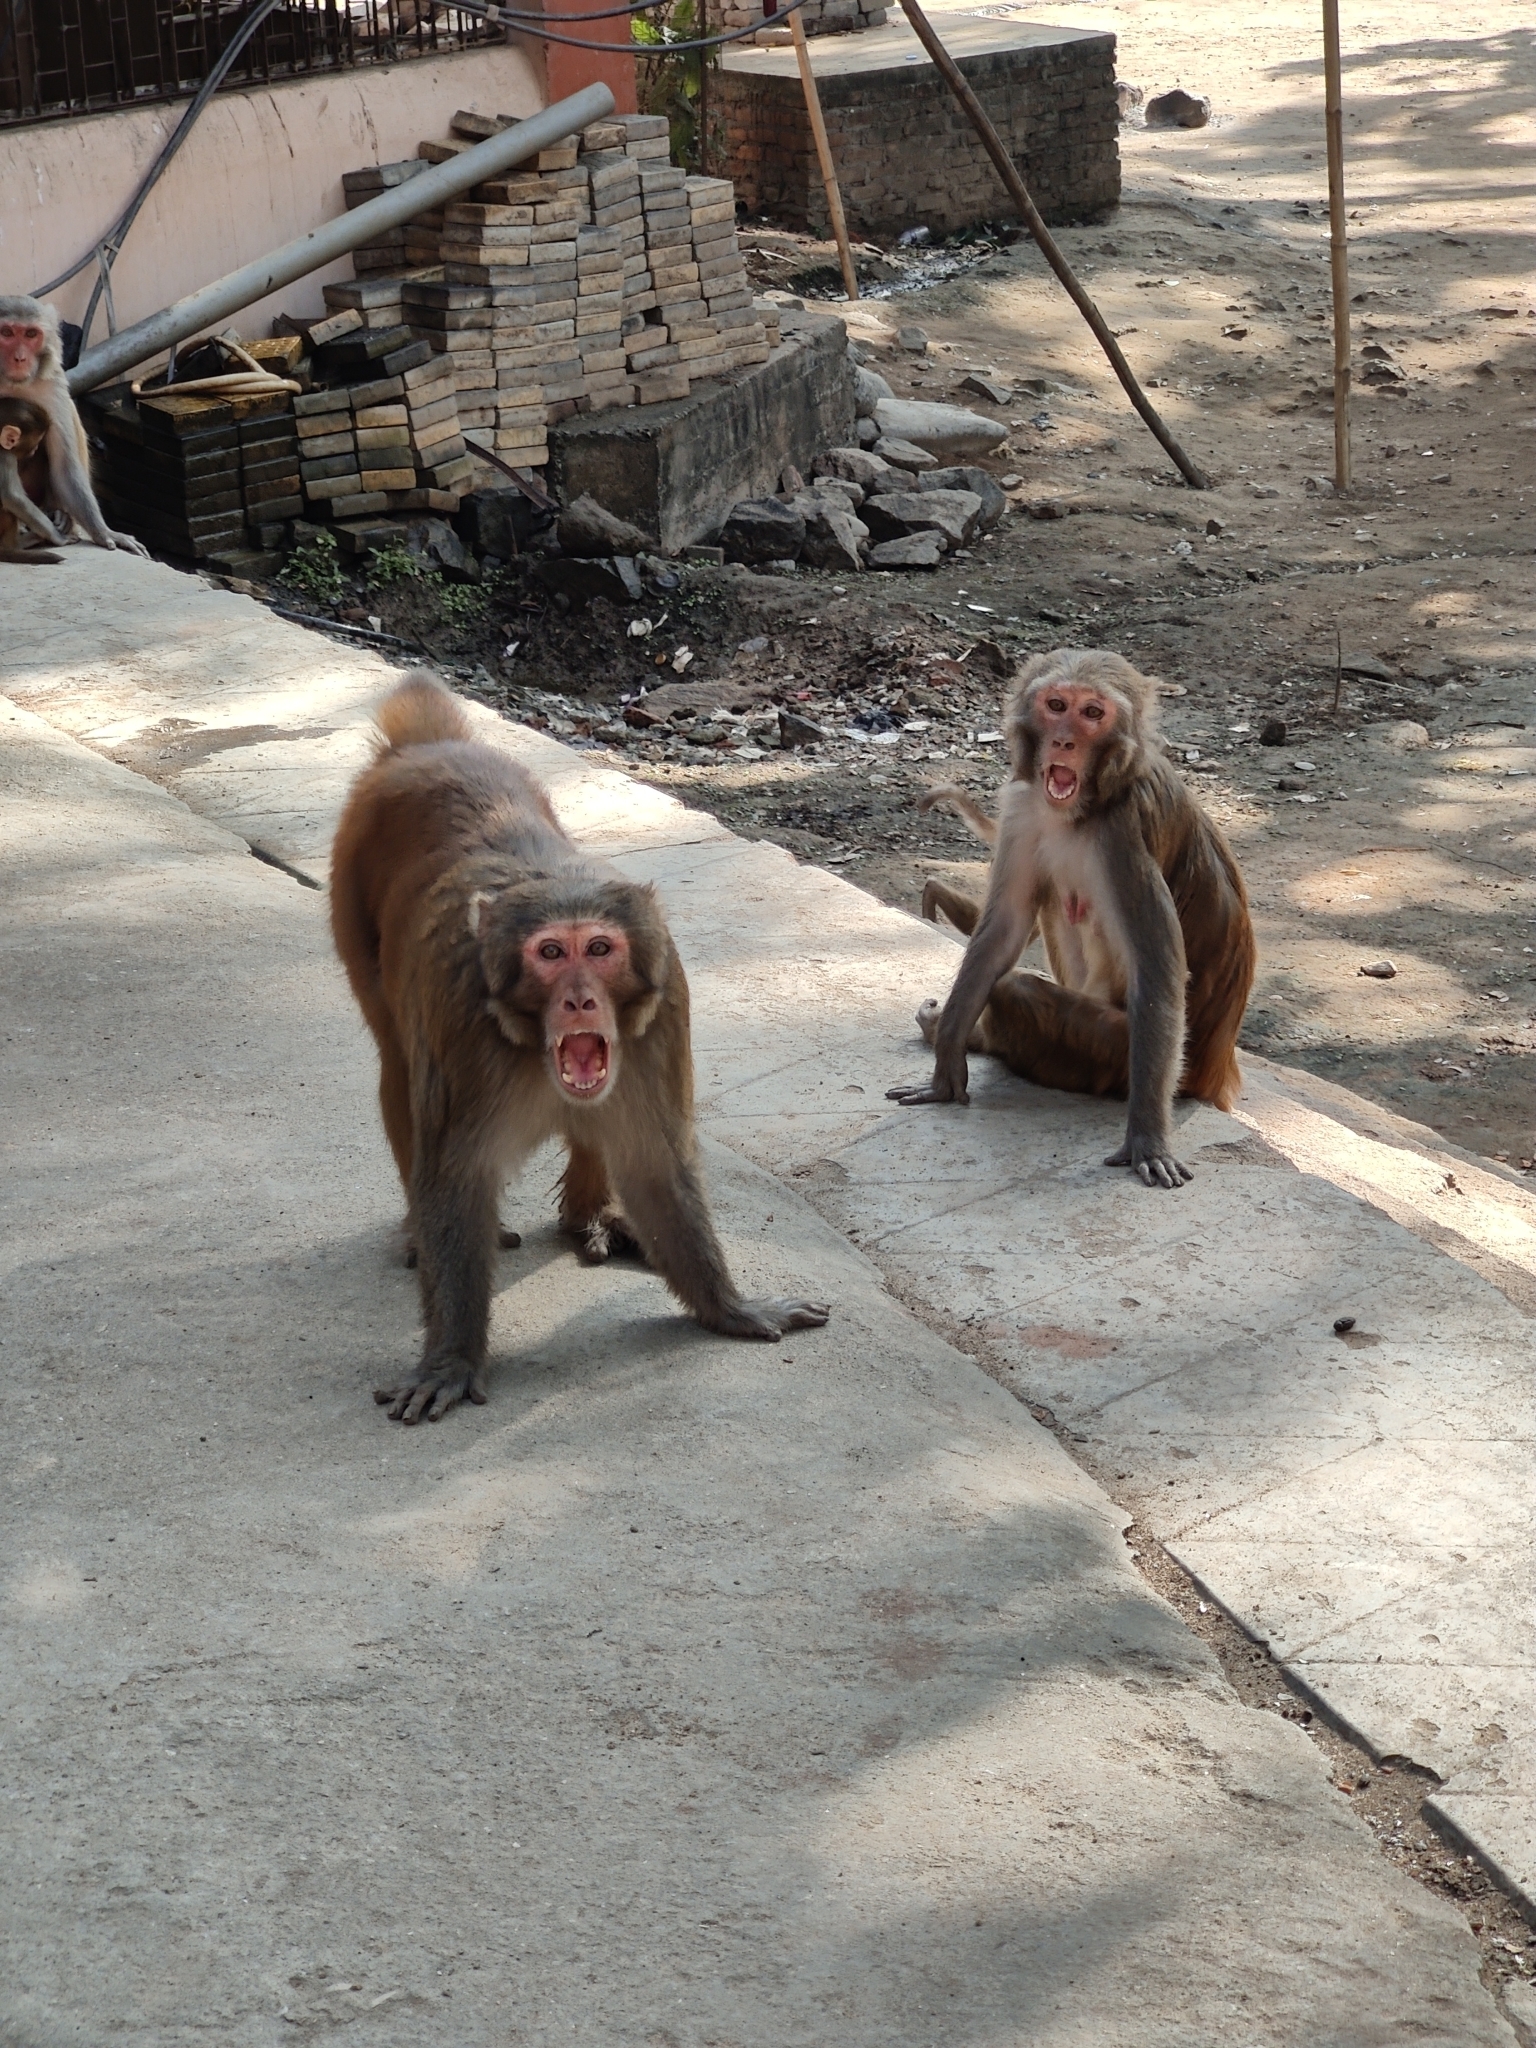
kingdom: Animalia
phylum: Chordata
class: Mammalia
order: Primates
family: Cercopithecidae
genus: Macaca
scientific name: Macaca mulatta
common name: Rhesus monkey
